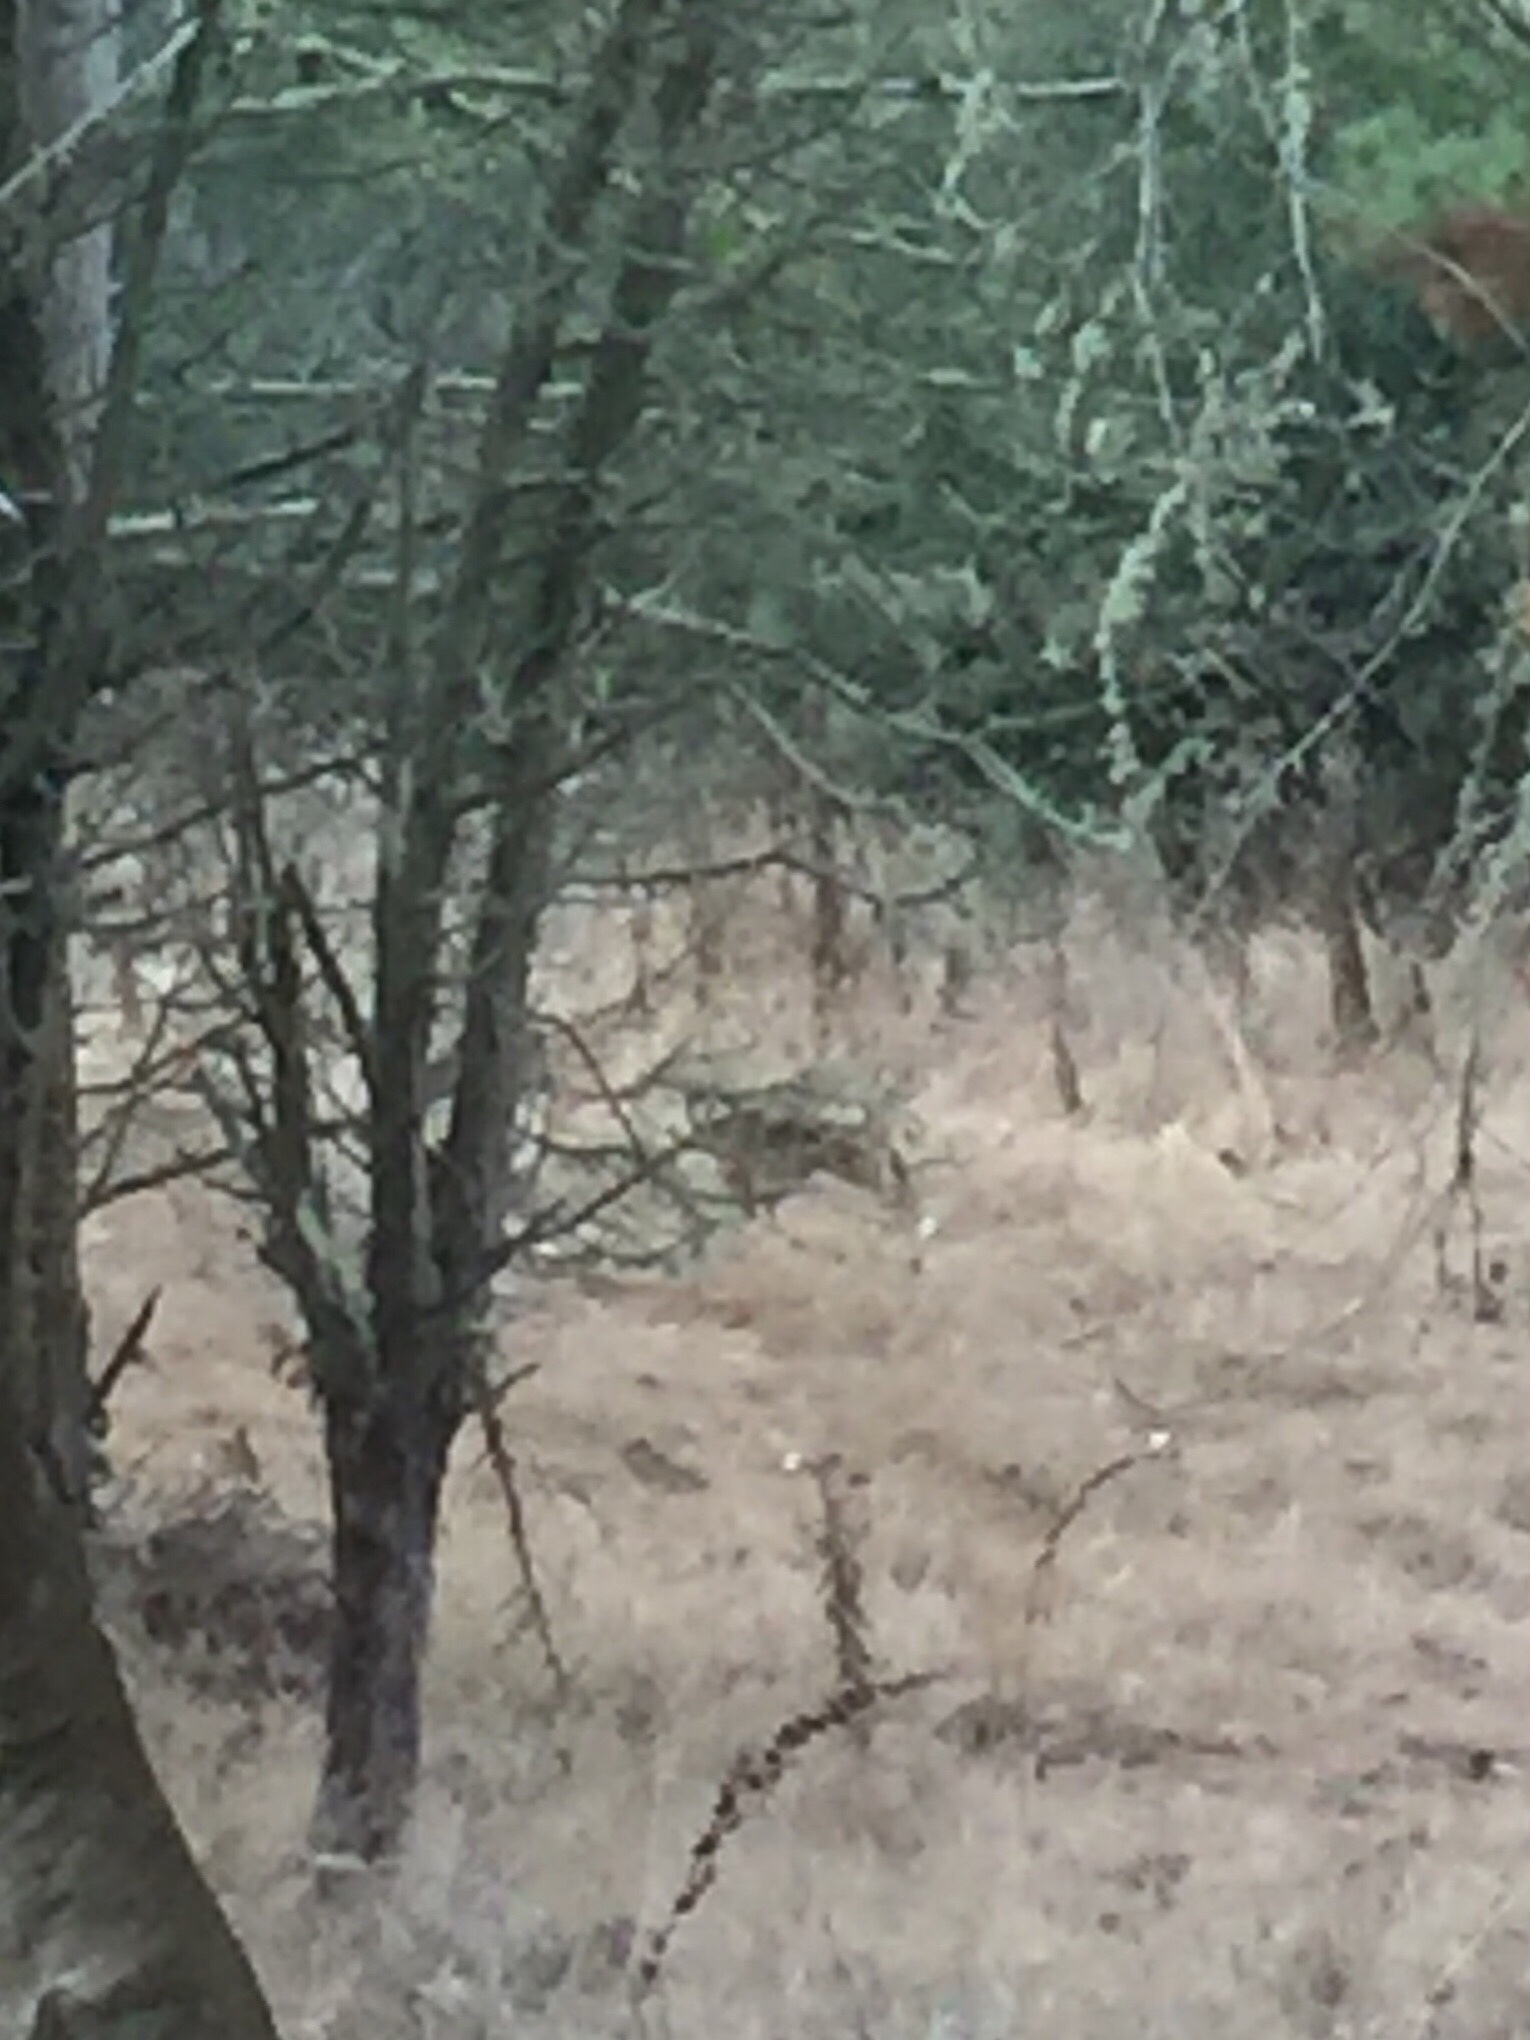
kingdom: Animalia
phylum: Chordata
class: Mammalia
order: Carnivora
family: Canidae
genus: Canis
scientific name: Canis latrans
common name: Coyote
